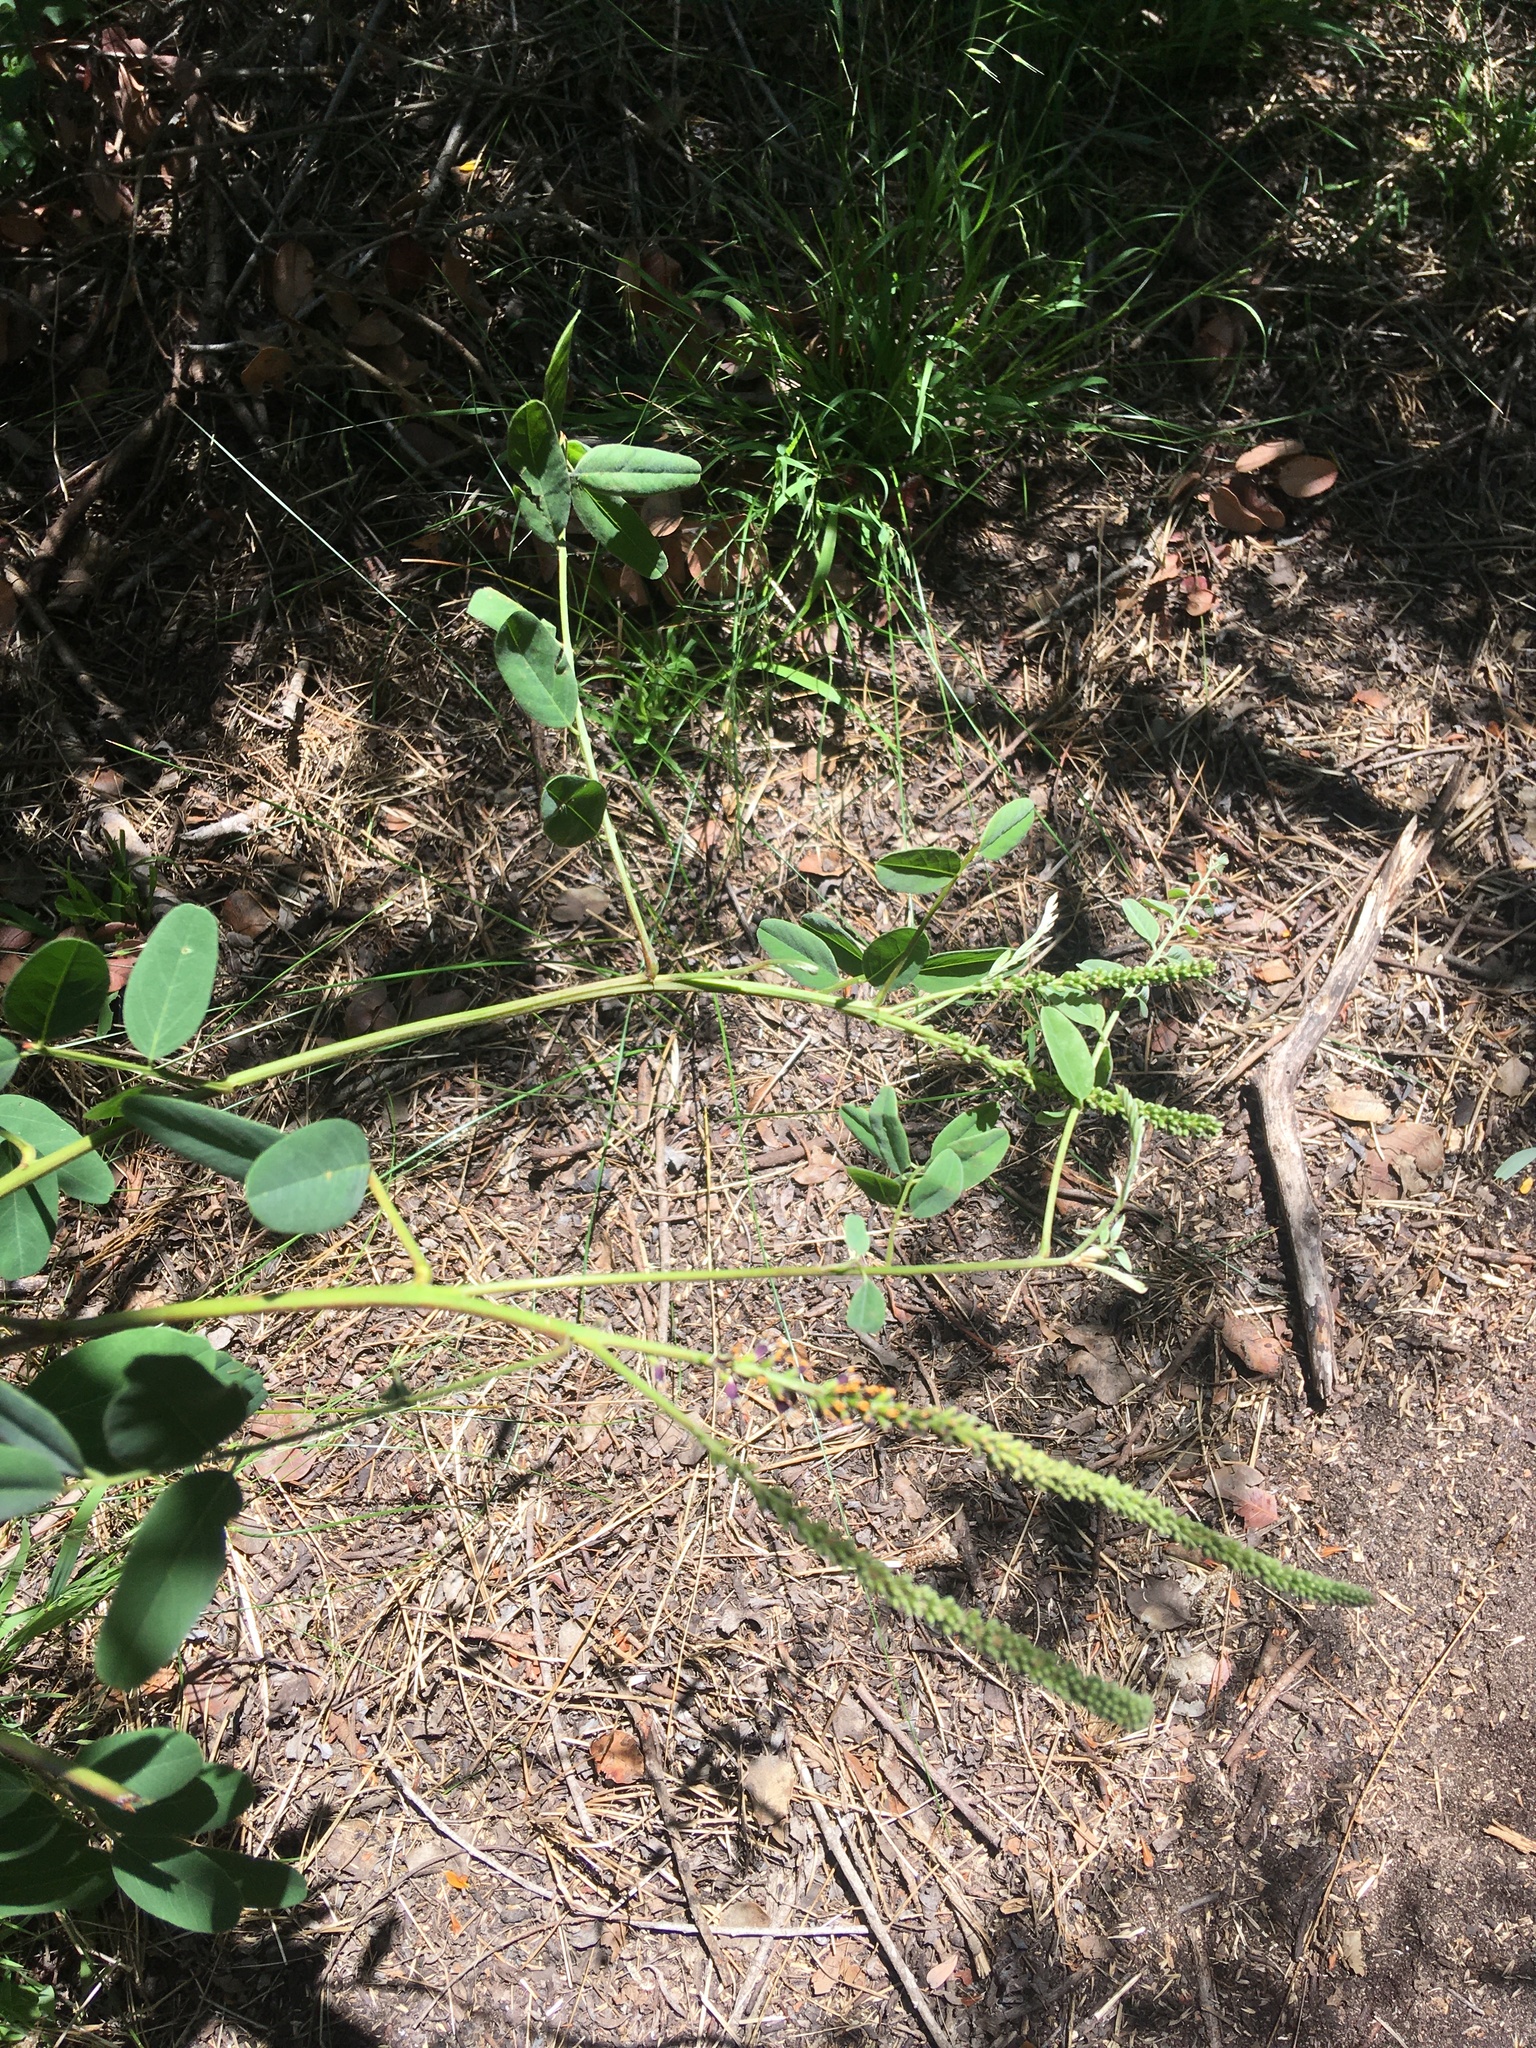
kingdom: Plantae
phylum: Tracheophyta
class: Magnoliopsida
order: Fabales
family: Fabaceae
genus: Amorpha
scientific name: Amorpha fruticosa
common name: False indigo
